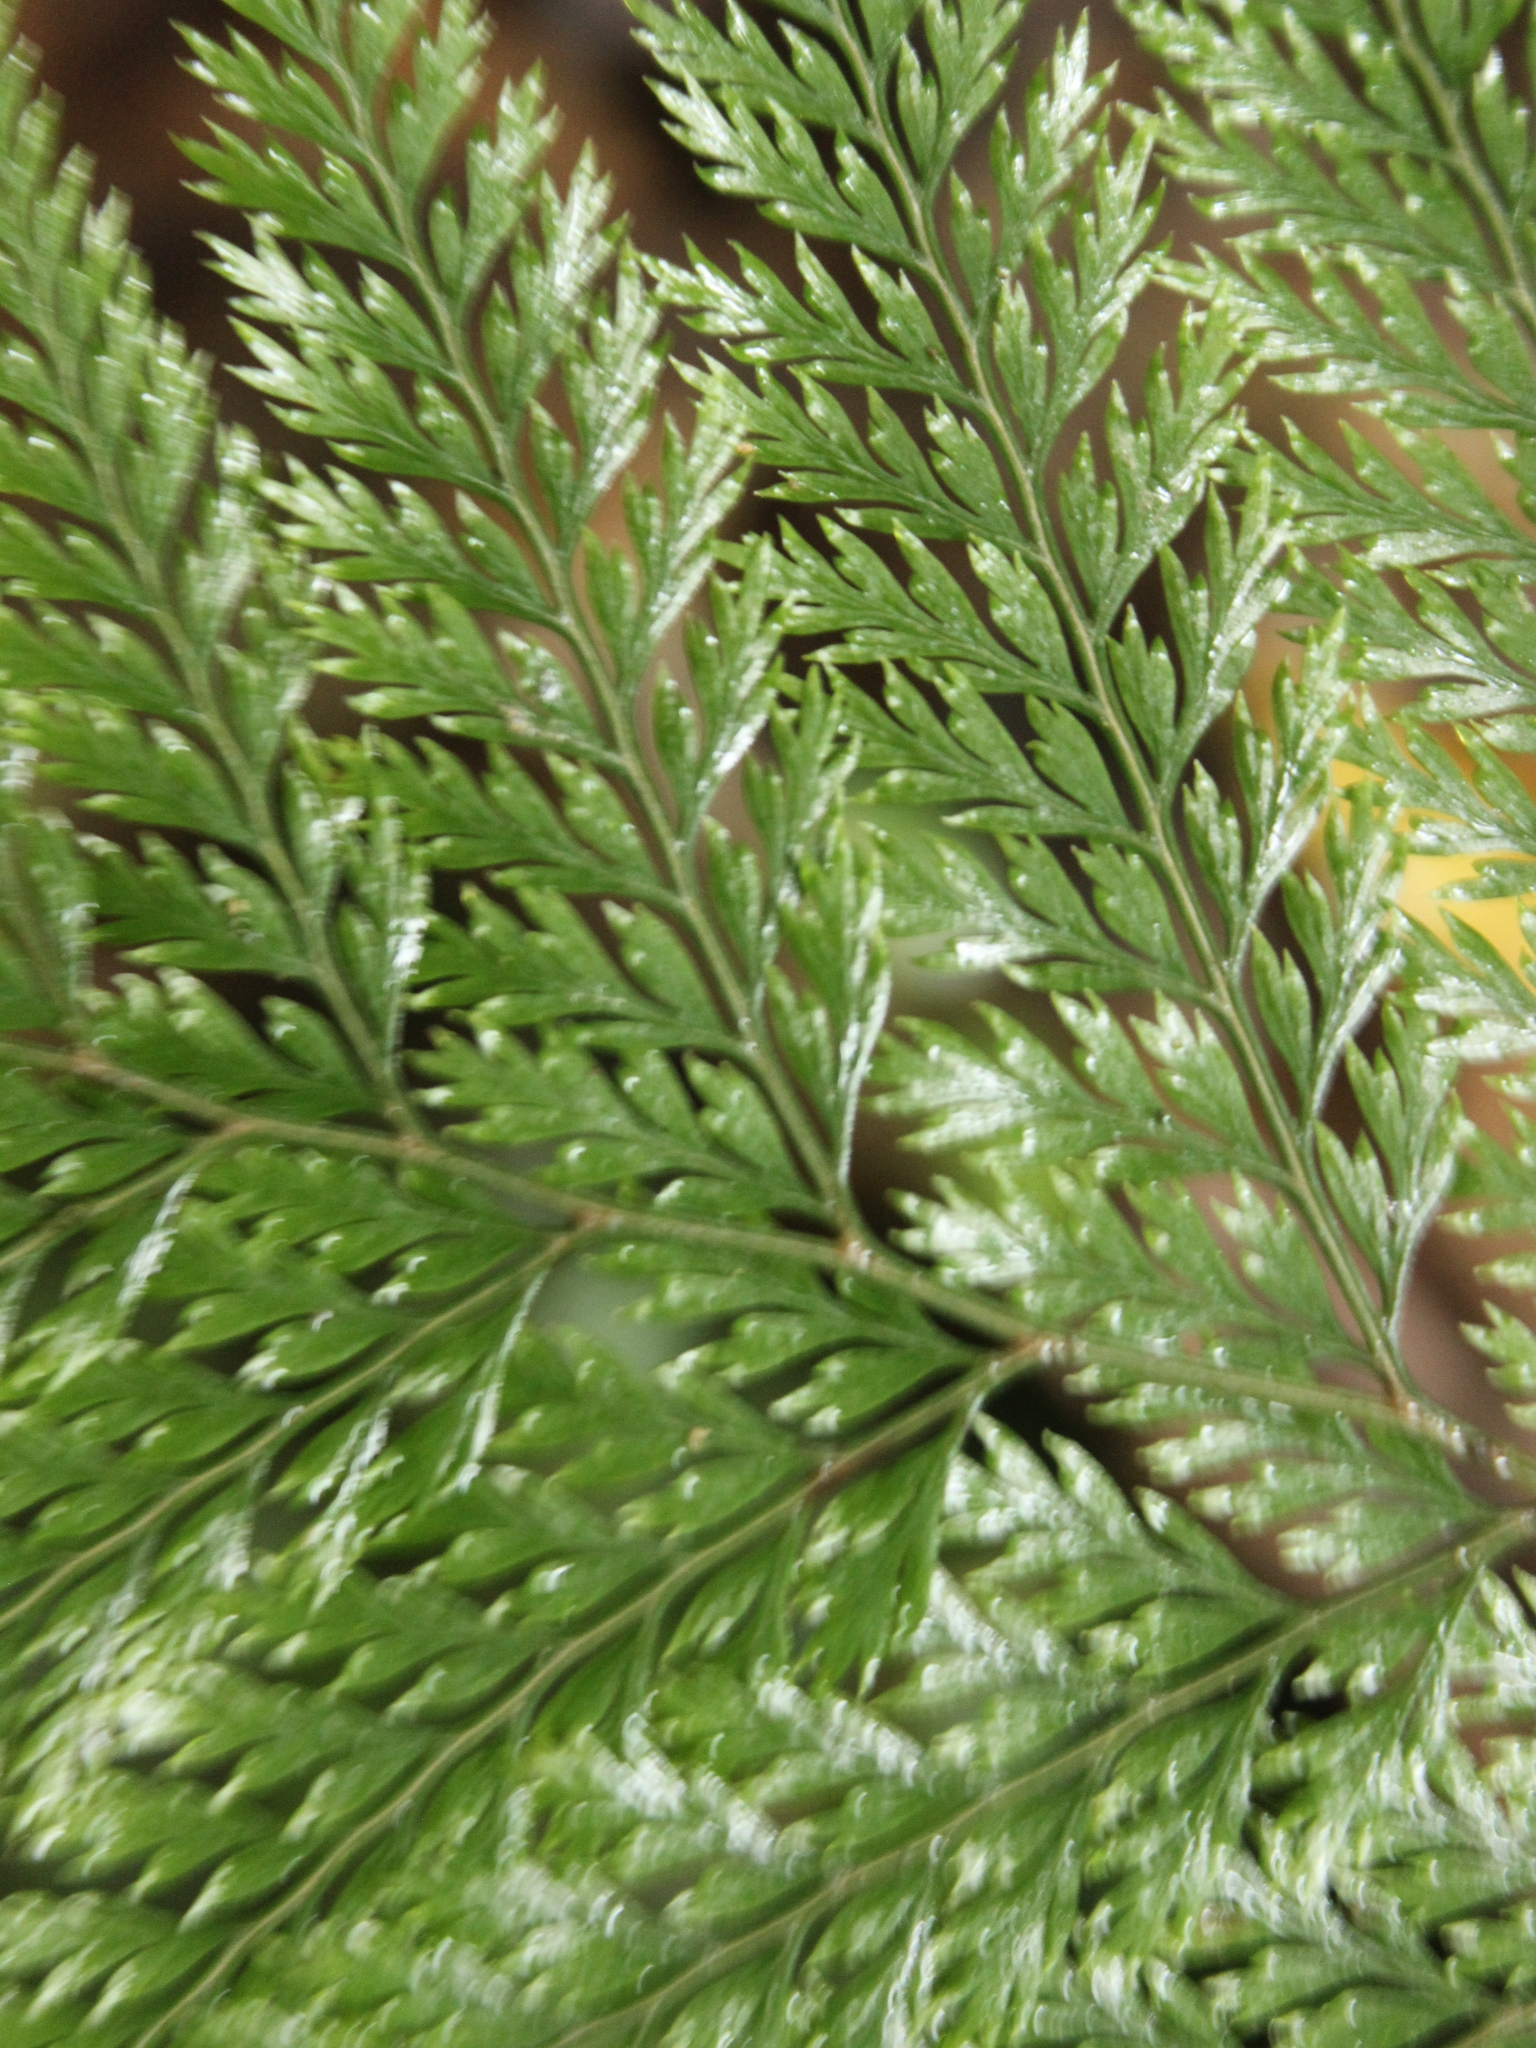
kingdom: Plantae
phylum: Tracheophyta
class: Polypodiopsida
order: Polypodiales
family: Dennstaedtiaceae
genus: Dennstaedtia
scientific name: Dennstaedtia novae-zelandiae
